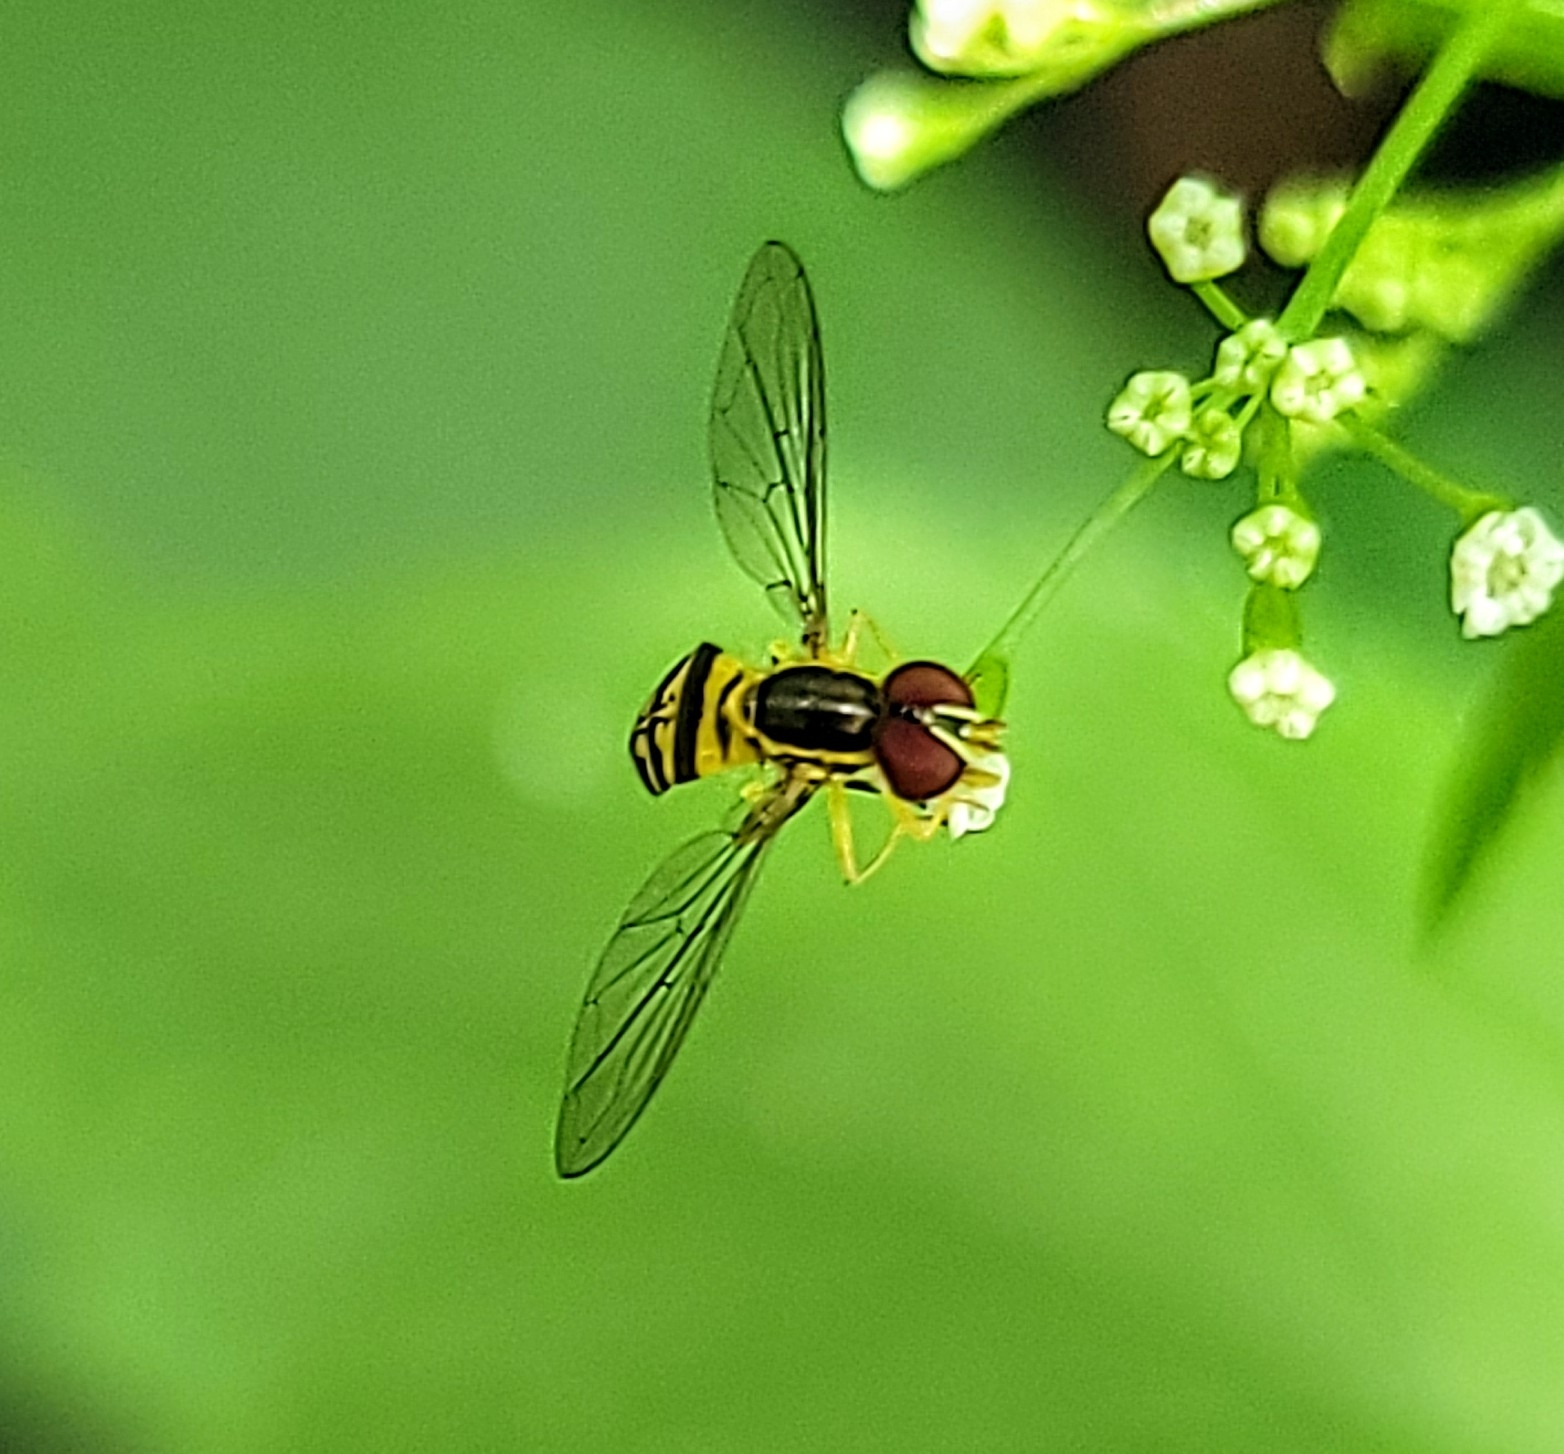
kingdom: Animalia
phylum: Arthropoda
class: Insecta
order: Diptera
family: Syrphidae
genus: Toxomerus
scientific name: Toxomerus geminatus
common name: Eastern calligrapher
